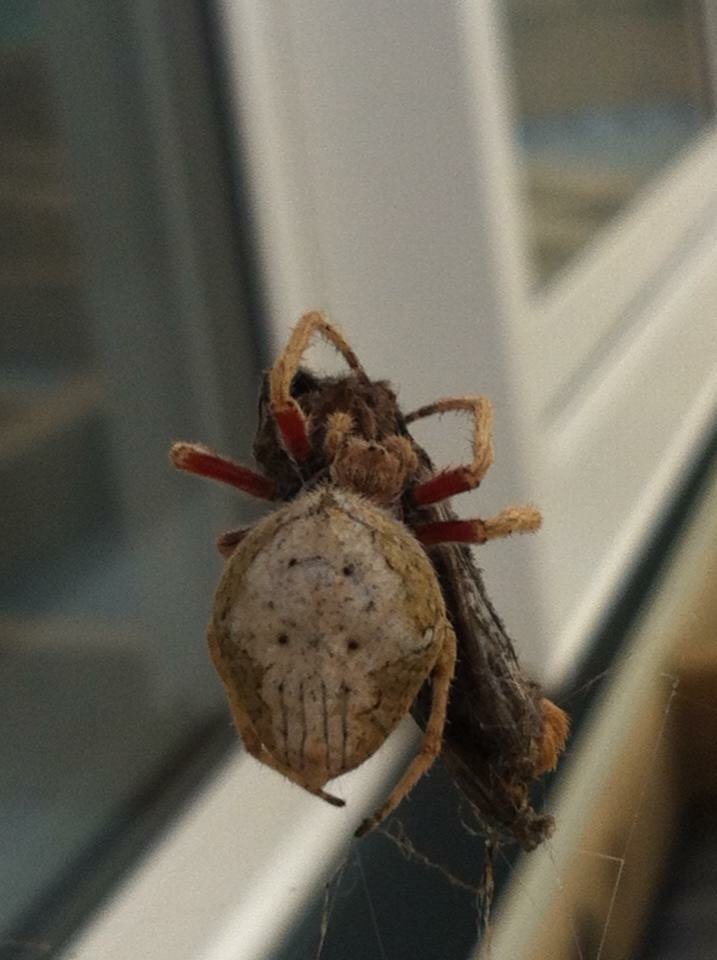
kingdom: Animalia
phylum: Arthropoda
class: Arachnida
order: Araneae
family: Araneidae
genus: Eriophora
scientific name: Eriophora pustulosa
